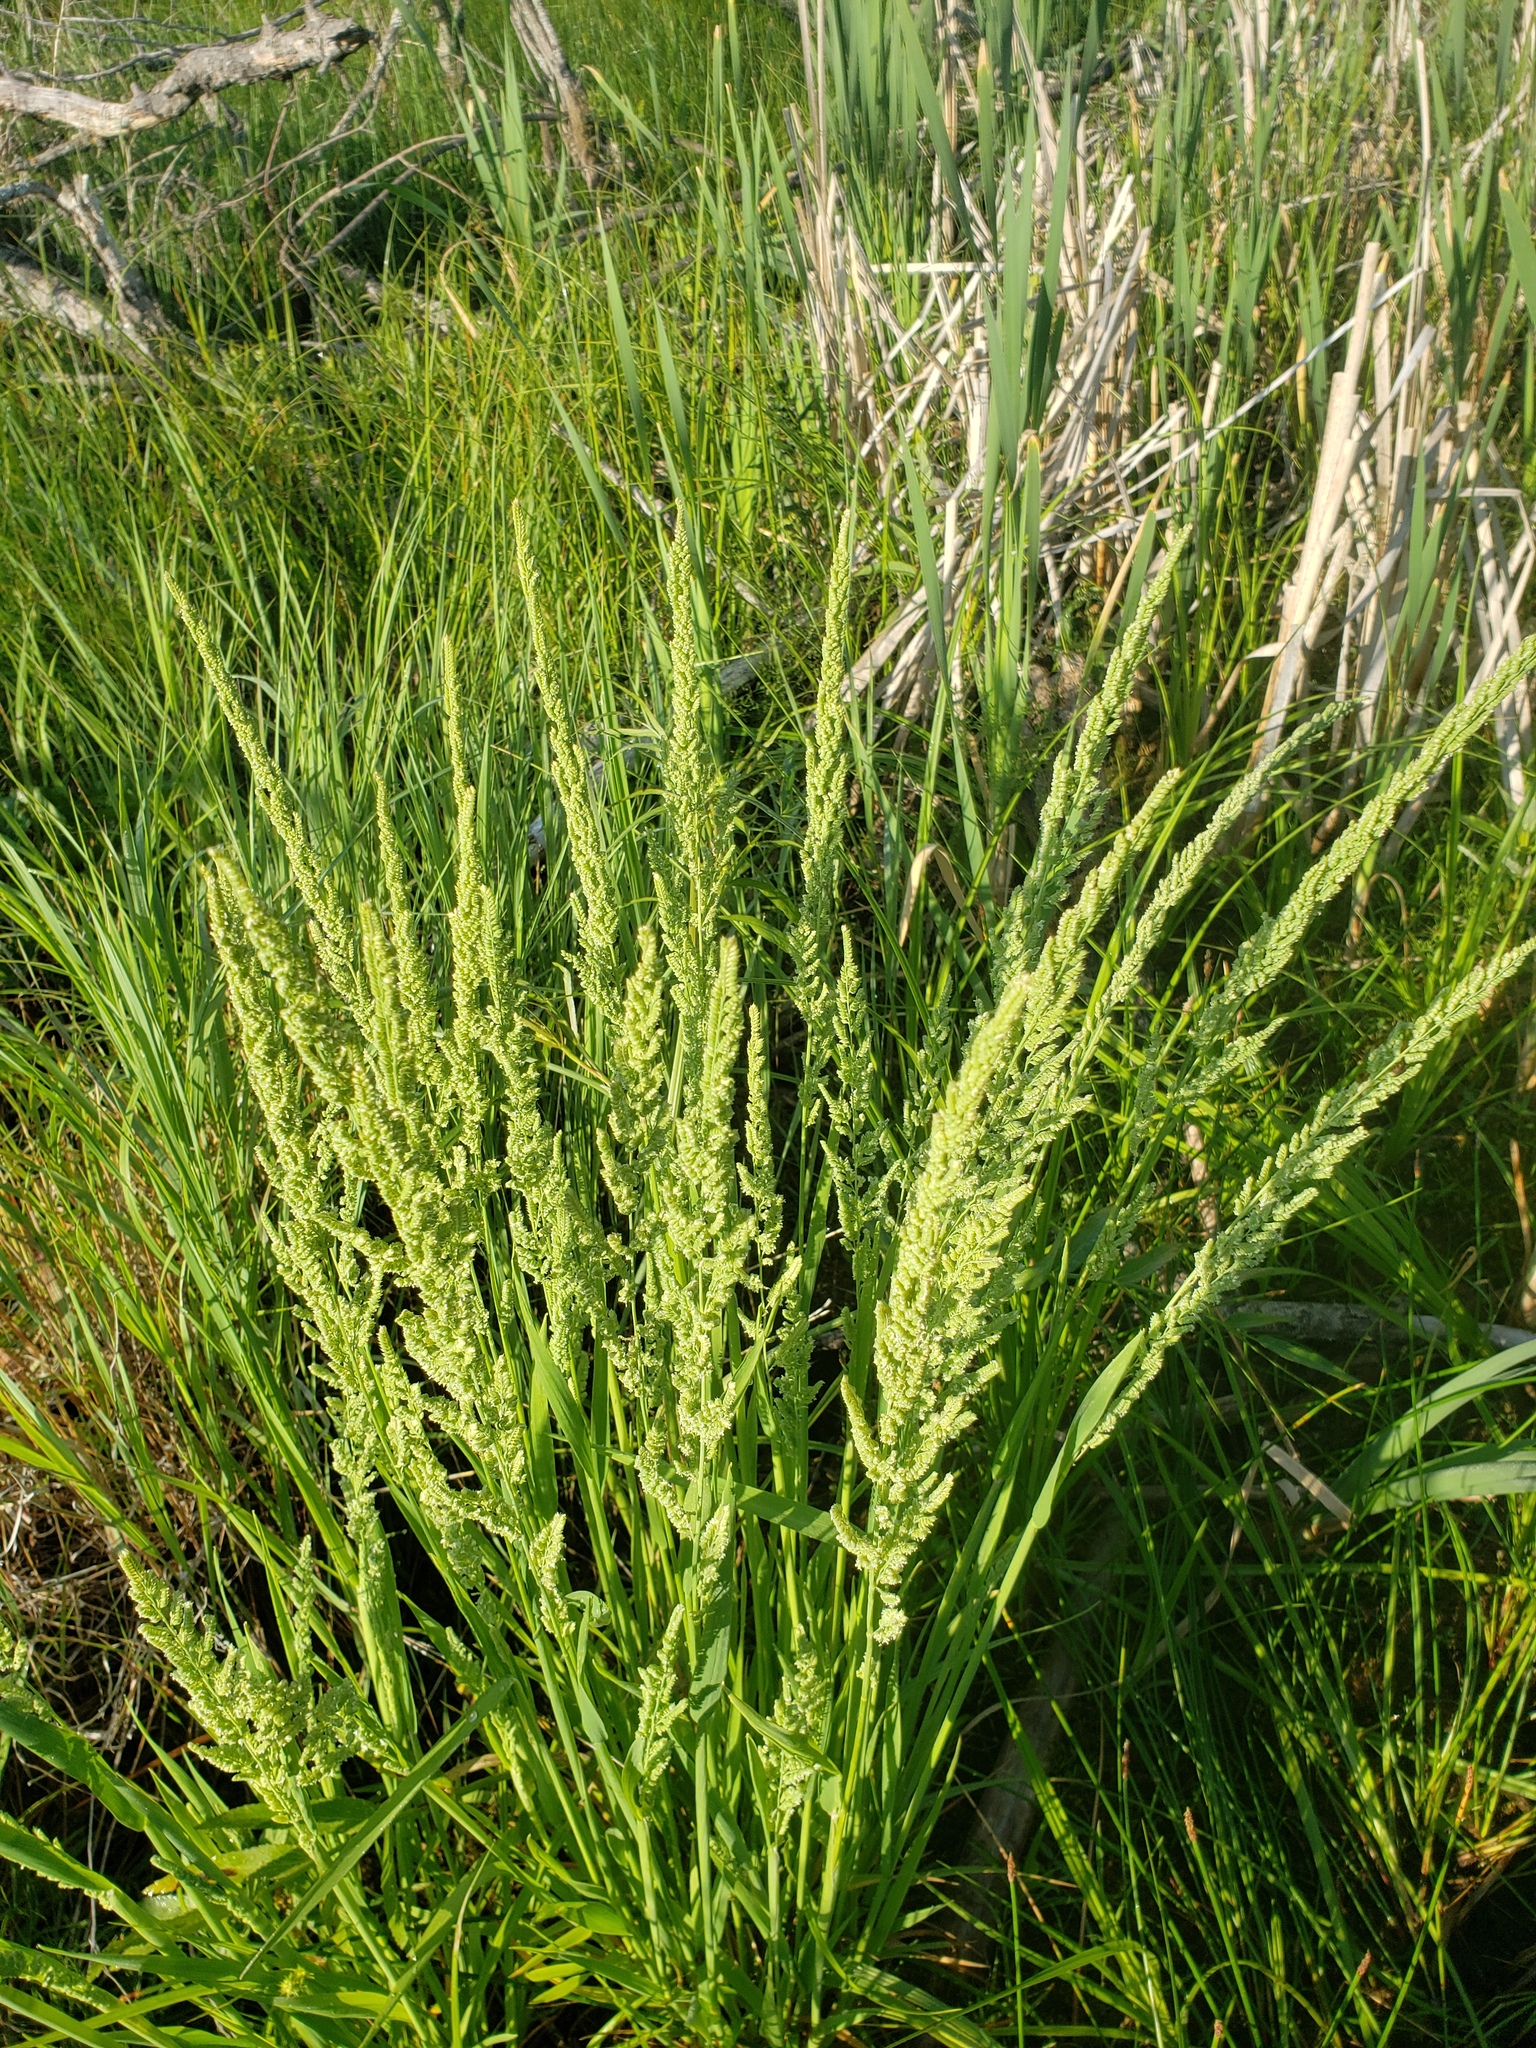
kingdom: Plantae
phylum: Tracheophyta
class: Liliopsida
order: Poales
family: Poaceae
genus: Beckmannia
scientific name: Beckmannia syzigachne
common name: American slough-grass
